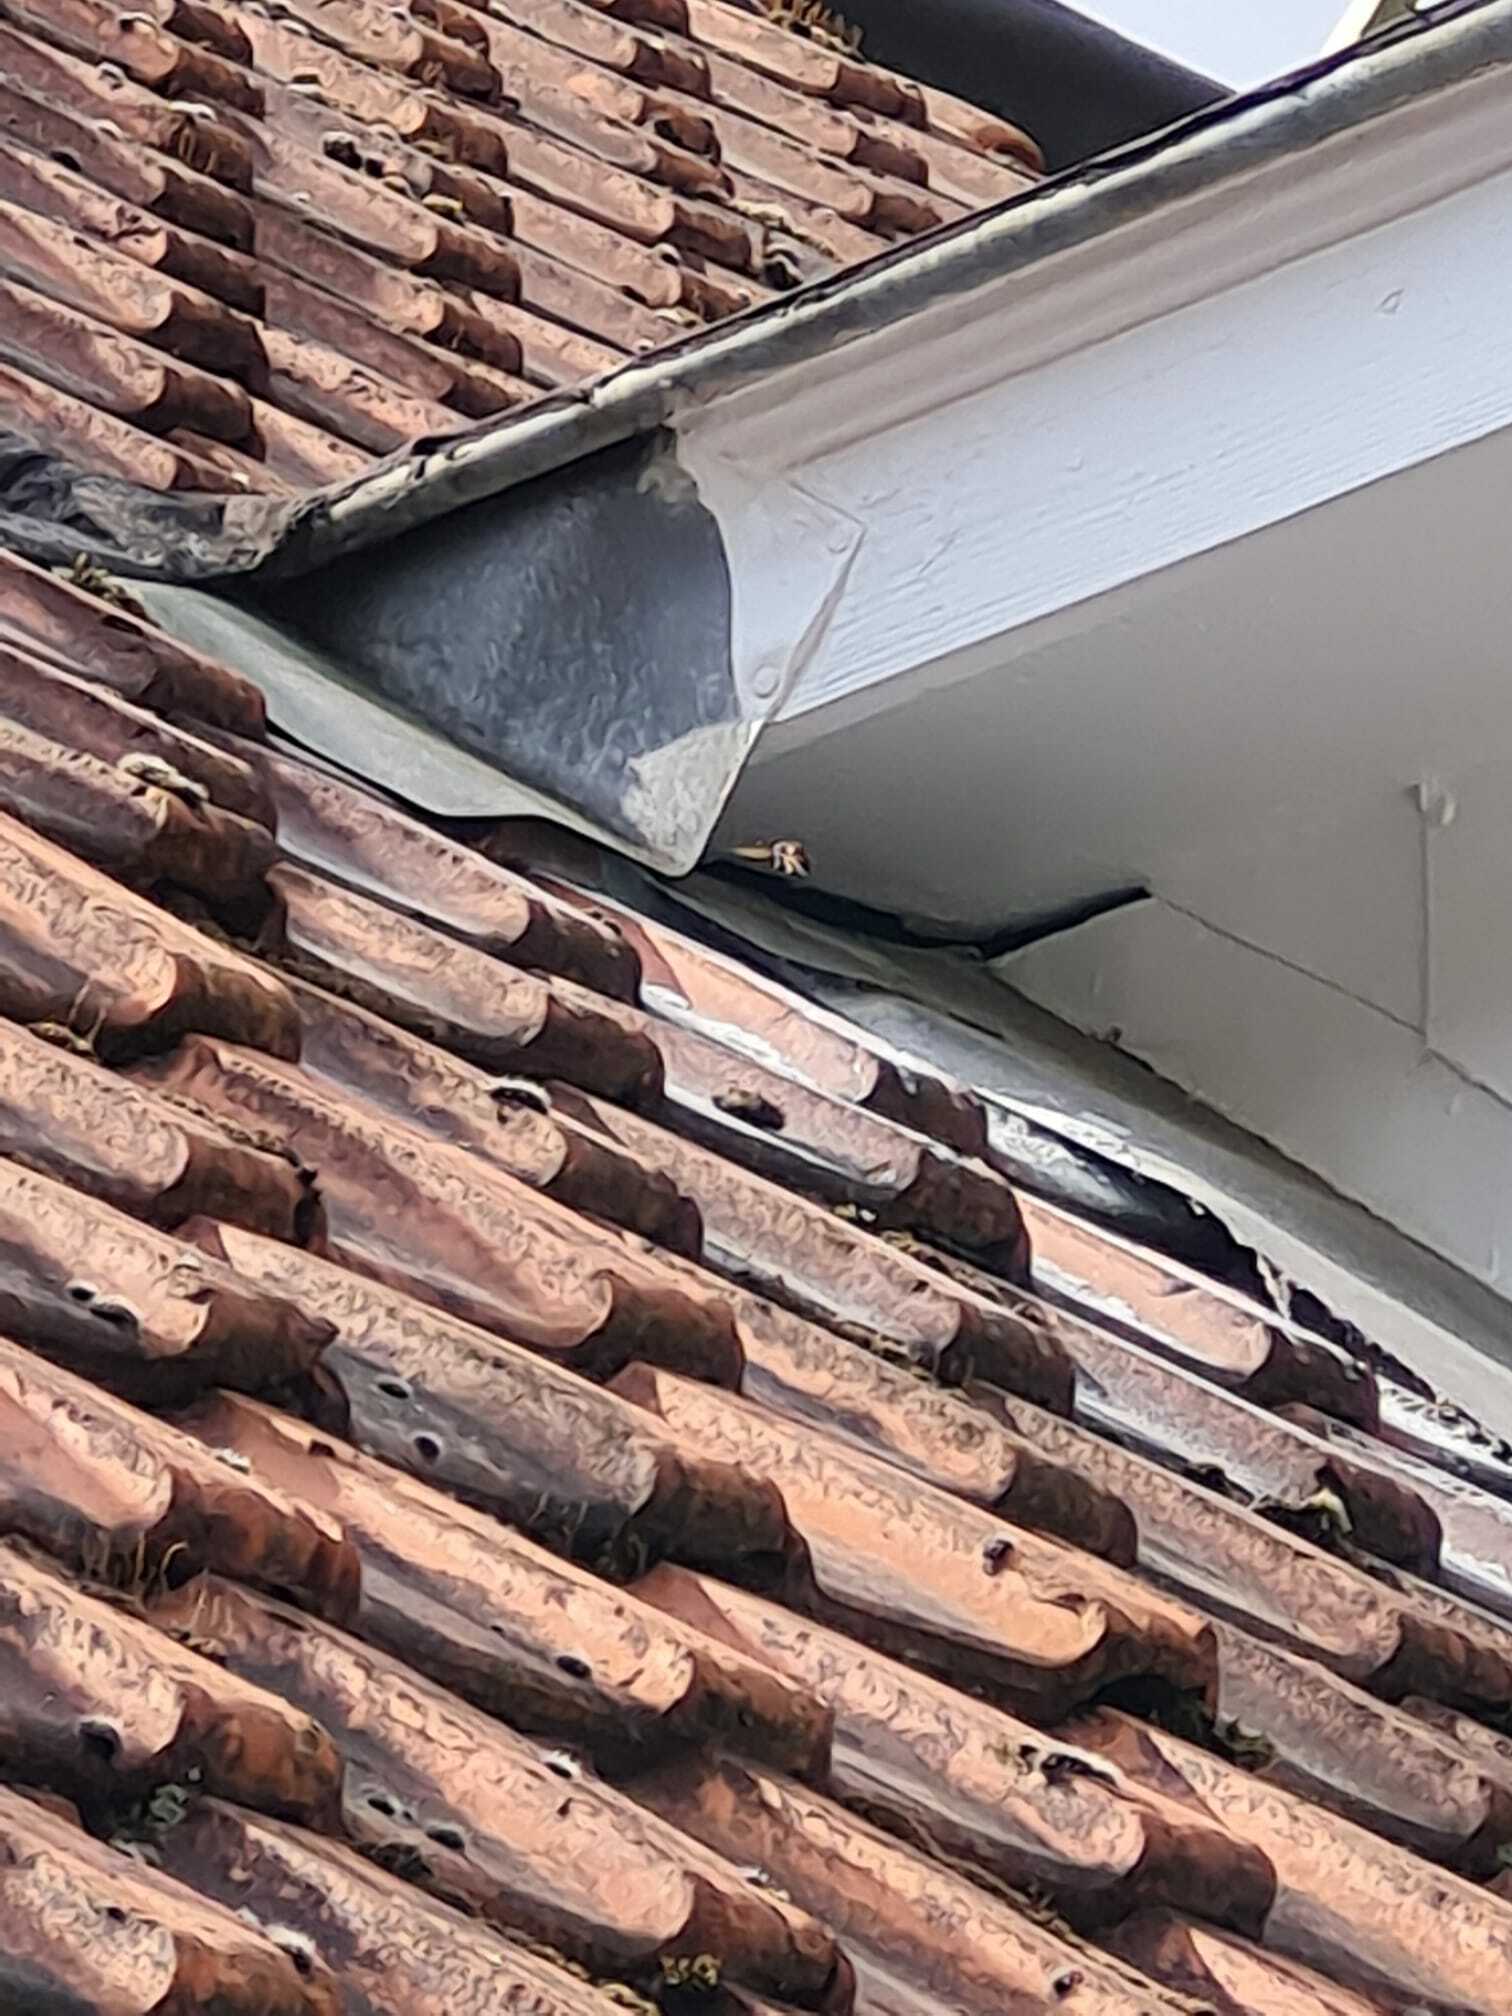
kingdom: Animalia
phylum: Arthropoda
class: Insecta
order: Hymenoptera
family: Vespidae
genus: Vespa
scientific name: Vespa velutina
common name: Asian hornet
